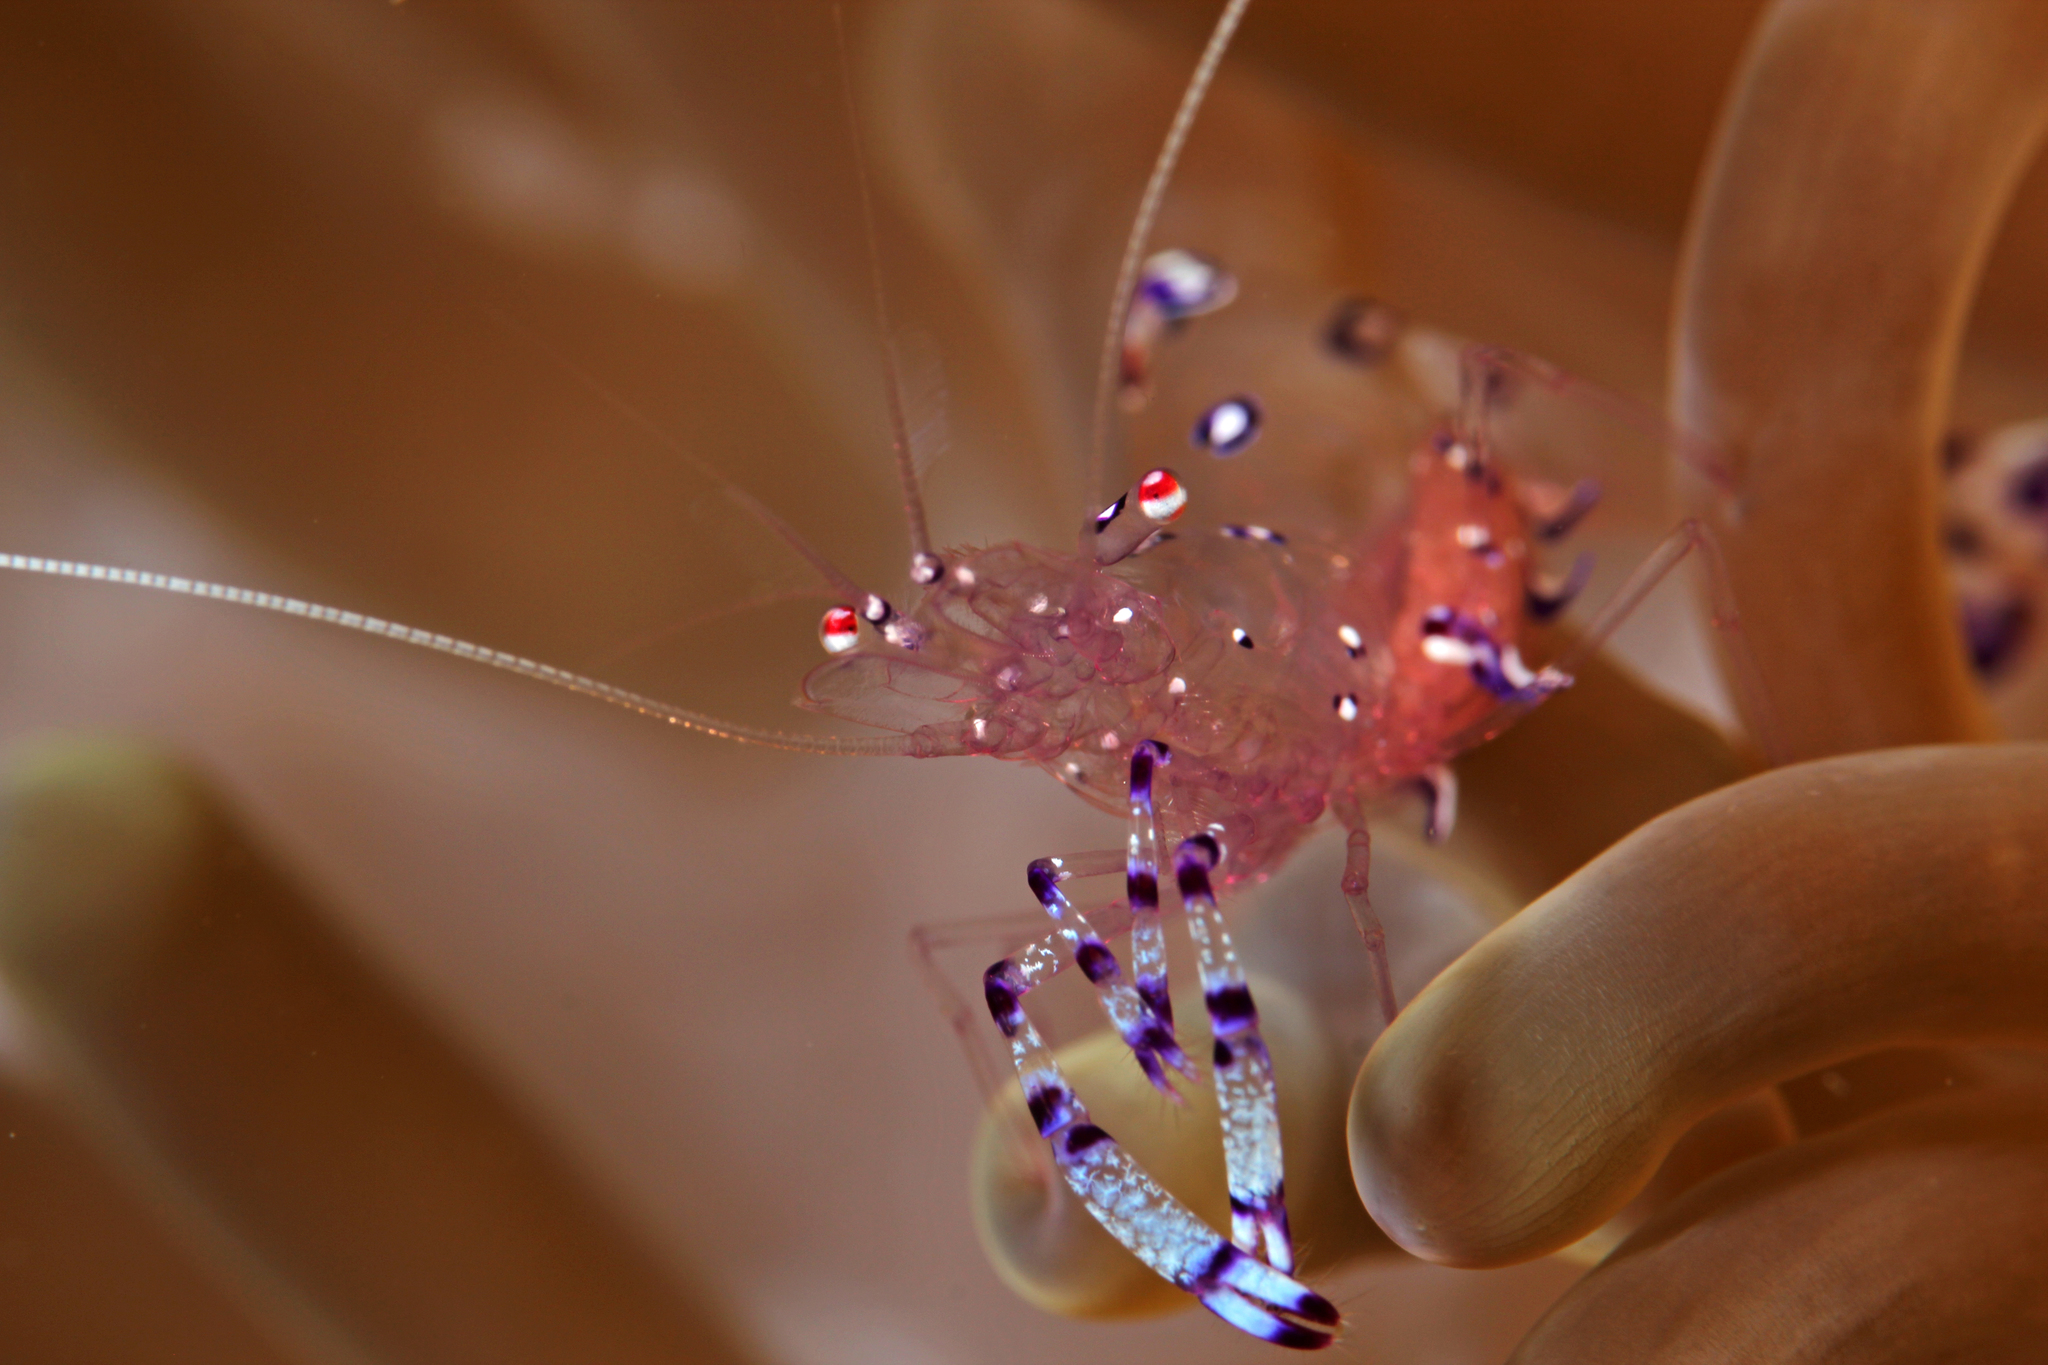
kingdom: Animalia
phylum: Arthropoda
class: Malacostraca
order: Decapoda
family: Palaemonidae
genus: Ancylomenes
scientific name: Ancylomenes sarasvati
